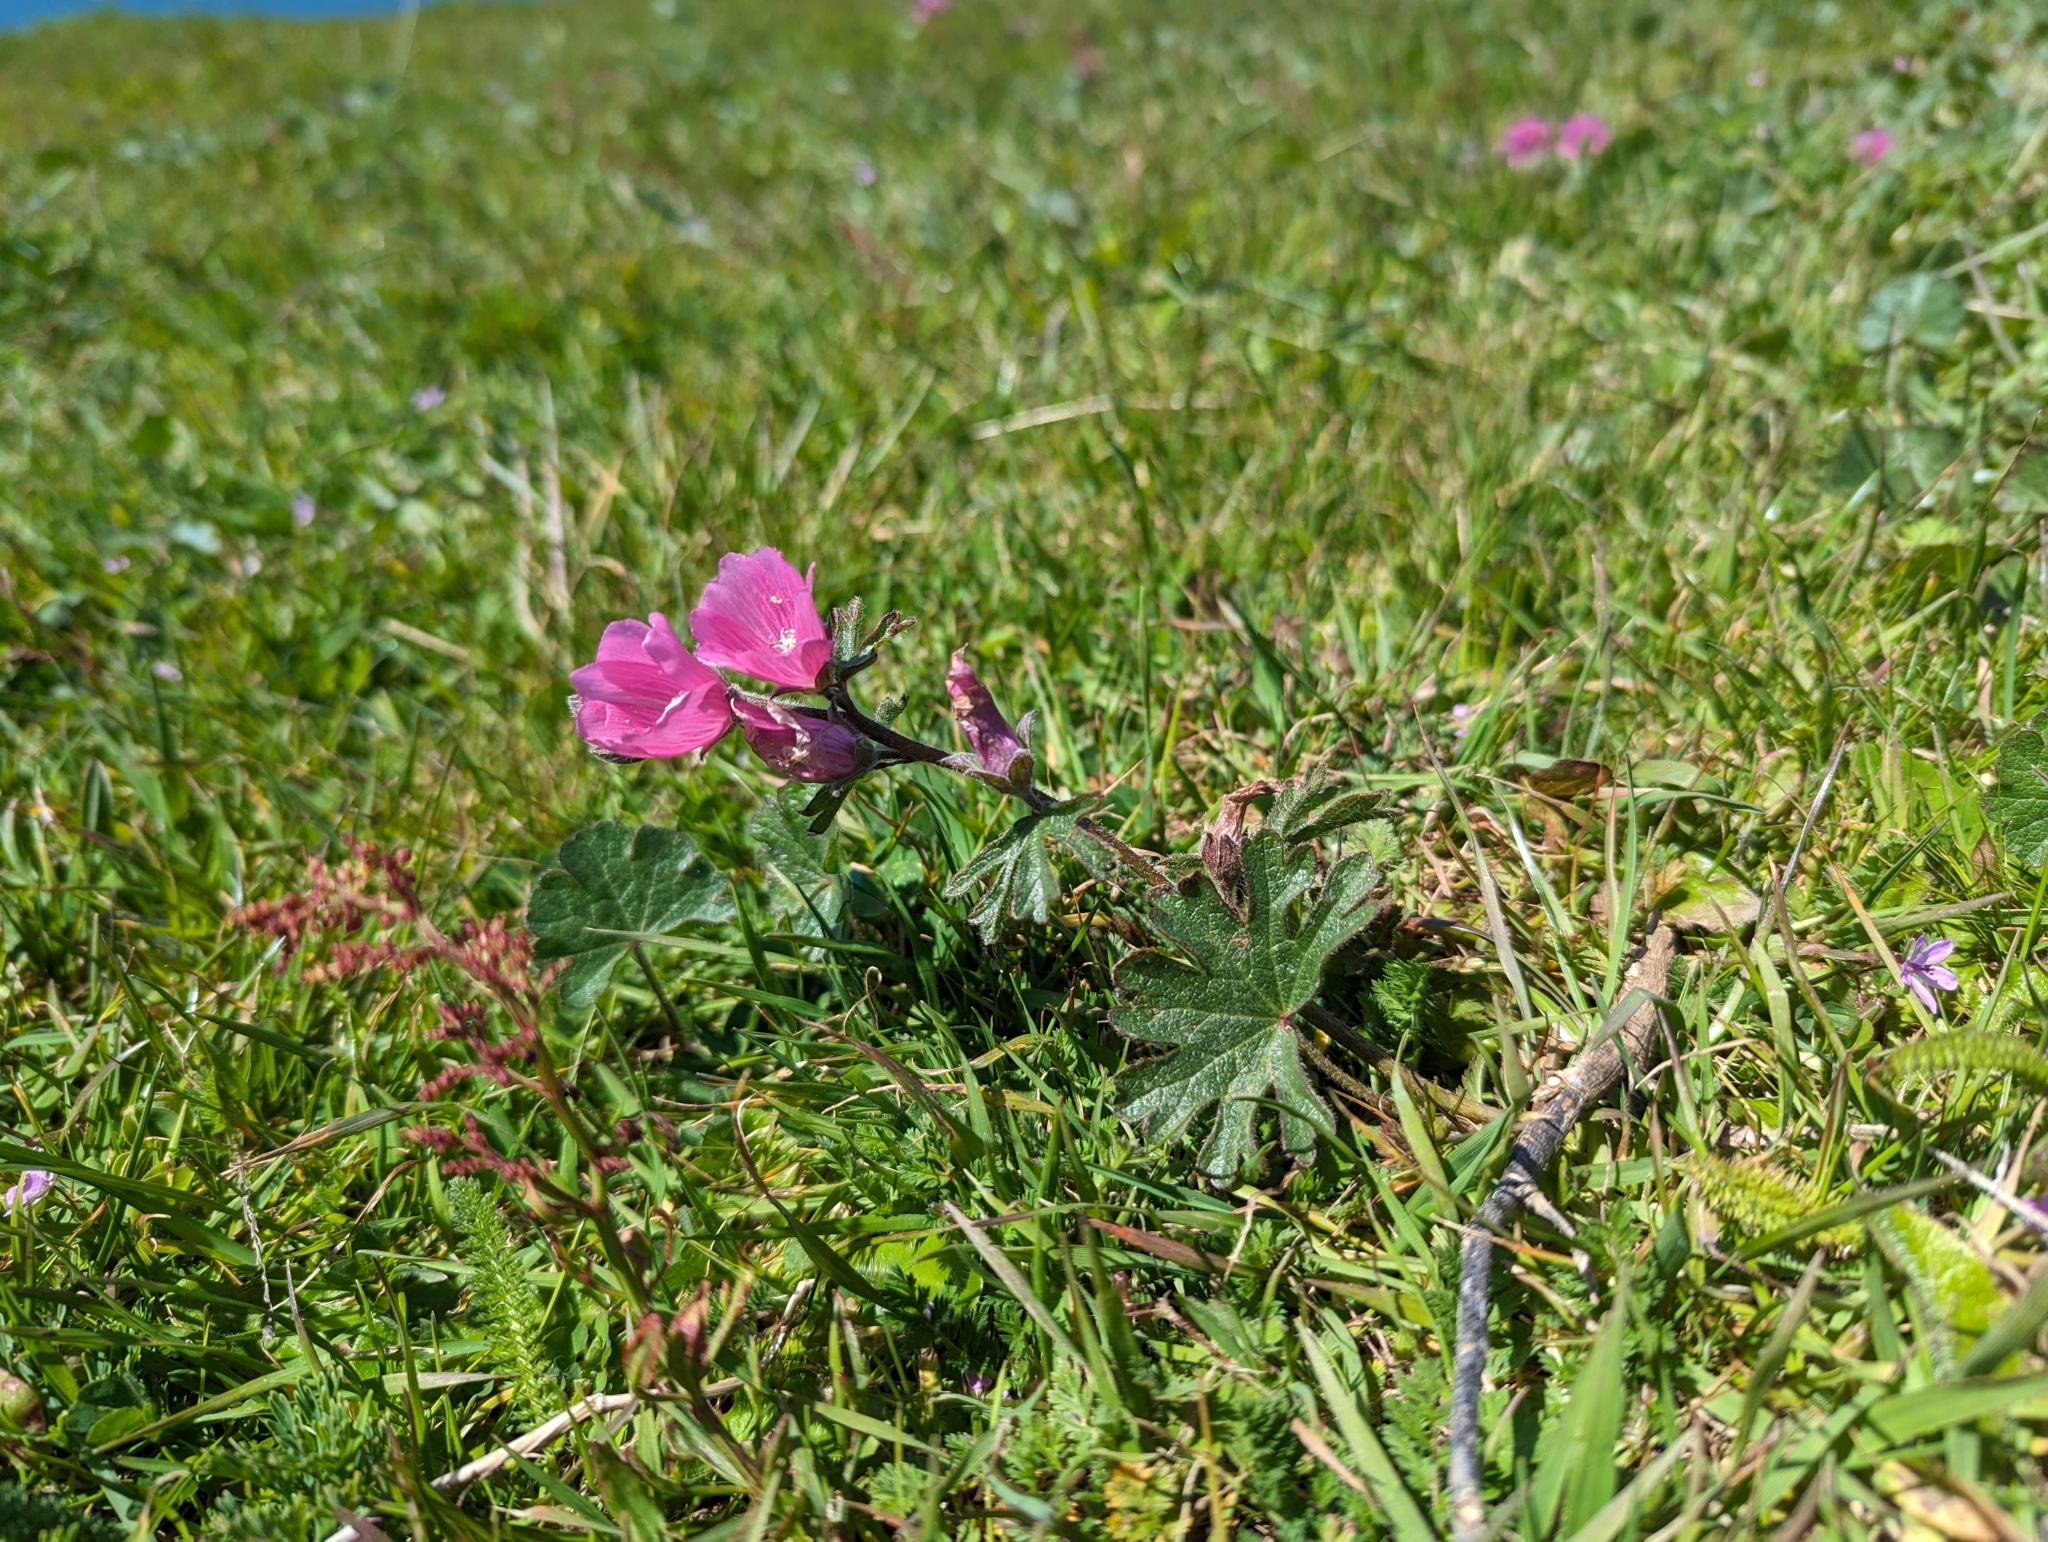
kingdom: Plantae
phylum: Tracheophyta
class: Magnoliopsida
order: Malvales
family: Malvaceae
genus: Sidalcea
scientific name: Sidalcea malviflora
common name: Greek mallow
